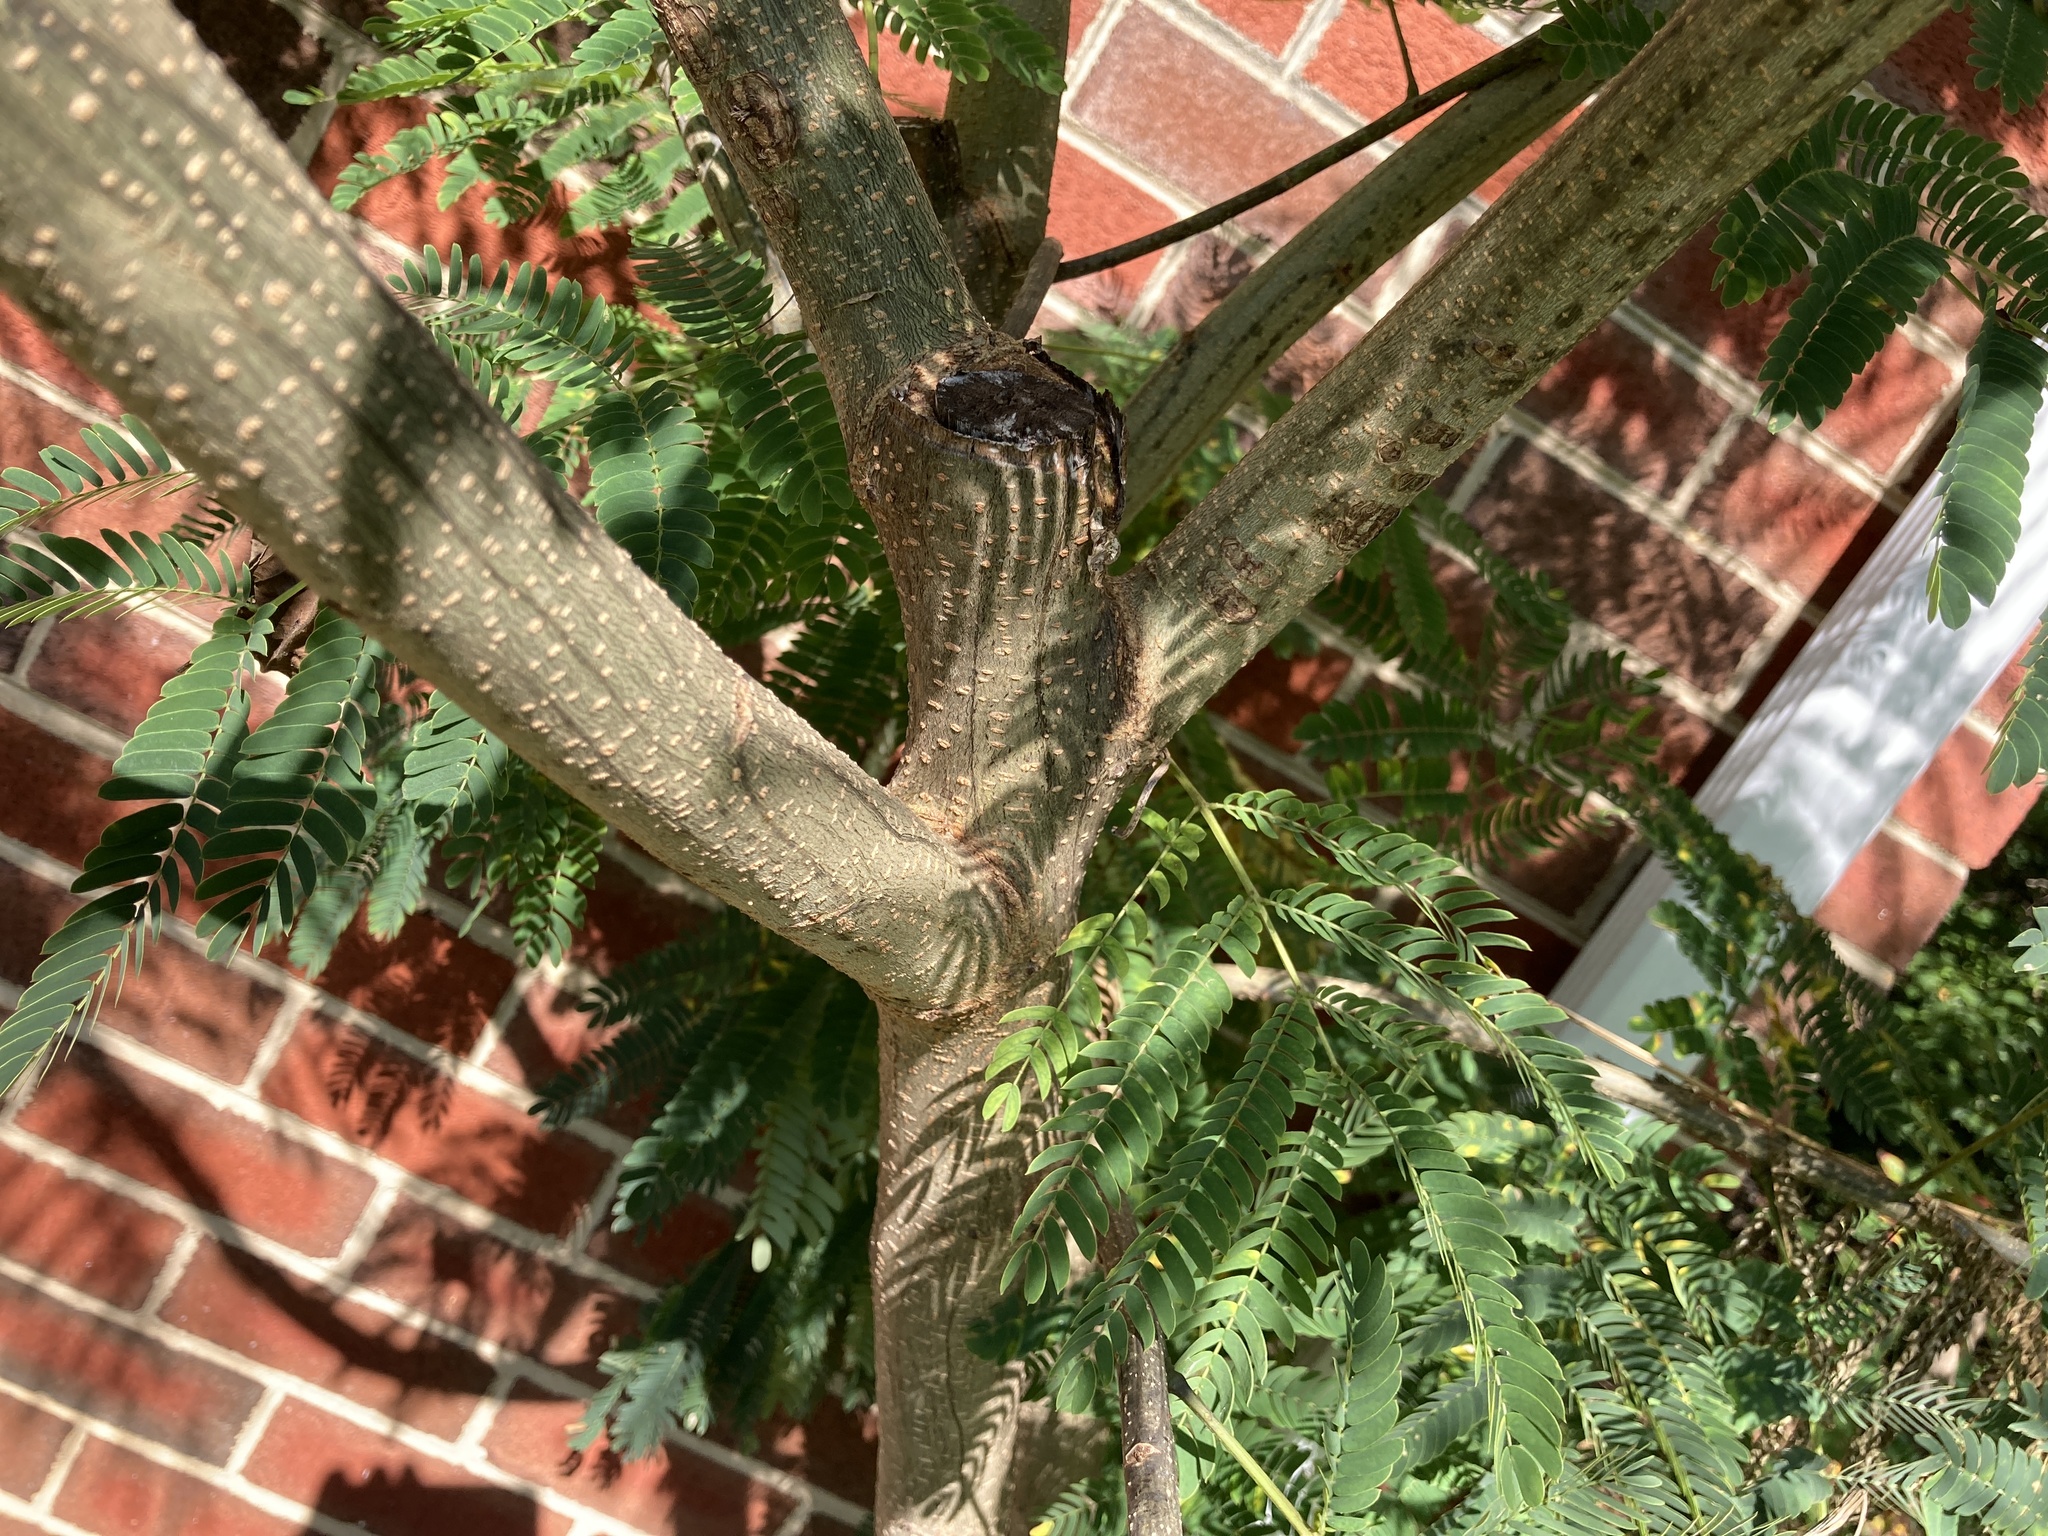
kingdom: Plantae
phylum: Tracheophyta
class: Magnoliopsida
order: Fabales
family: Fabaceae
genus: Albizia
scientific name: Albizia julibrissin
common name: Silktree
